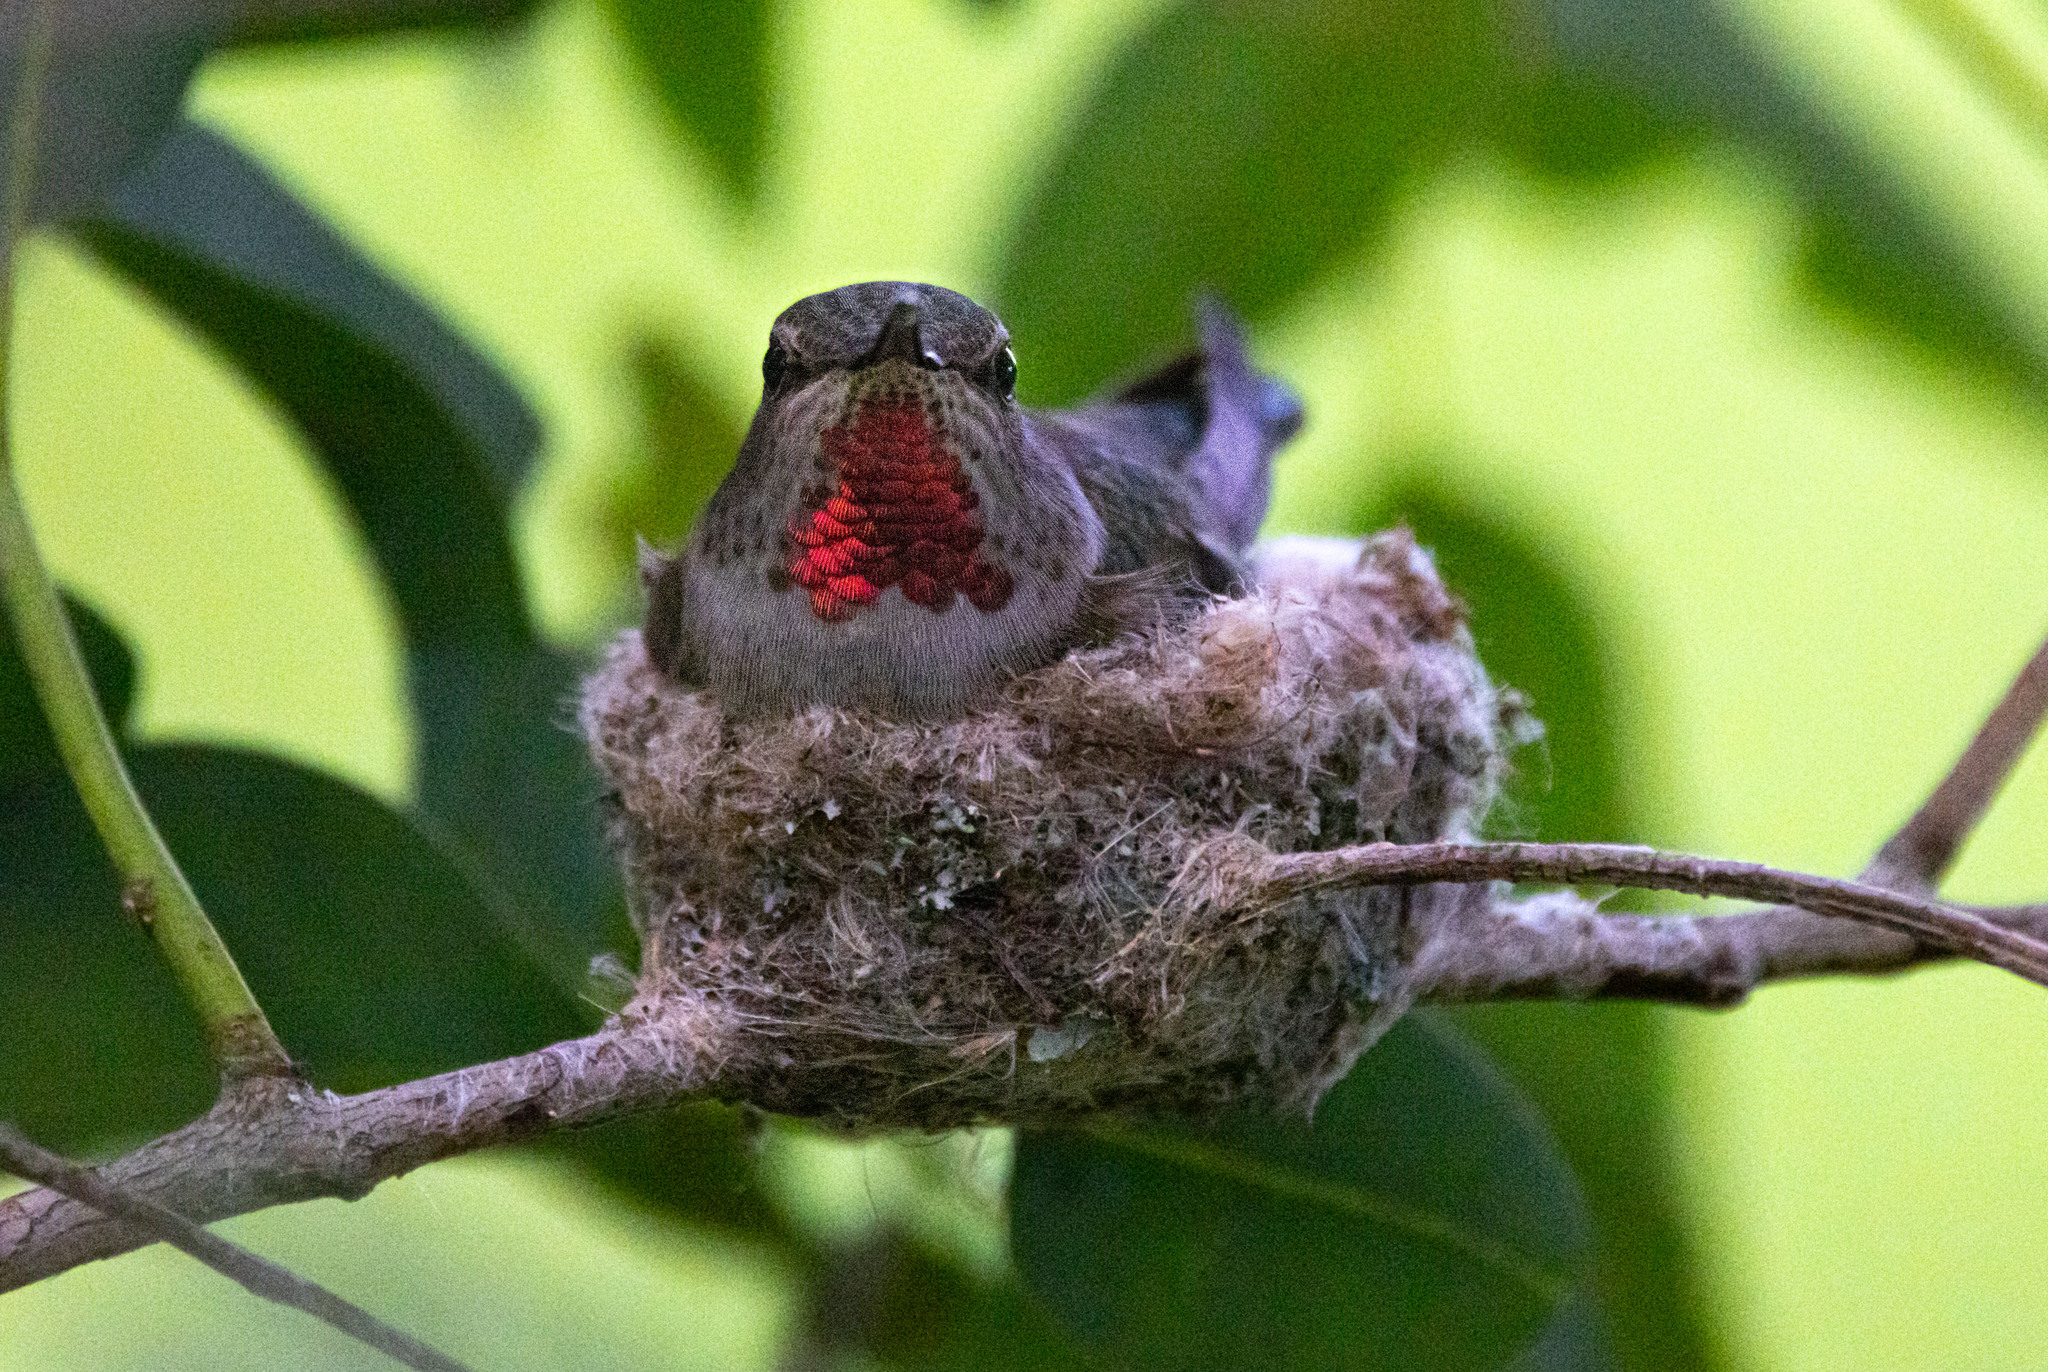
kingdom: Animalia
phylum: Chordata
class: Aves
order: Apodiformes
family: Trochilidae
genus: Calypte
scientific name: Calypte anna
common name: Anna's hummingbird
